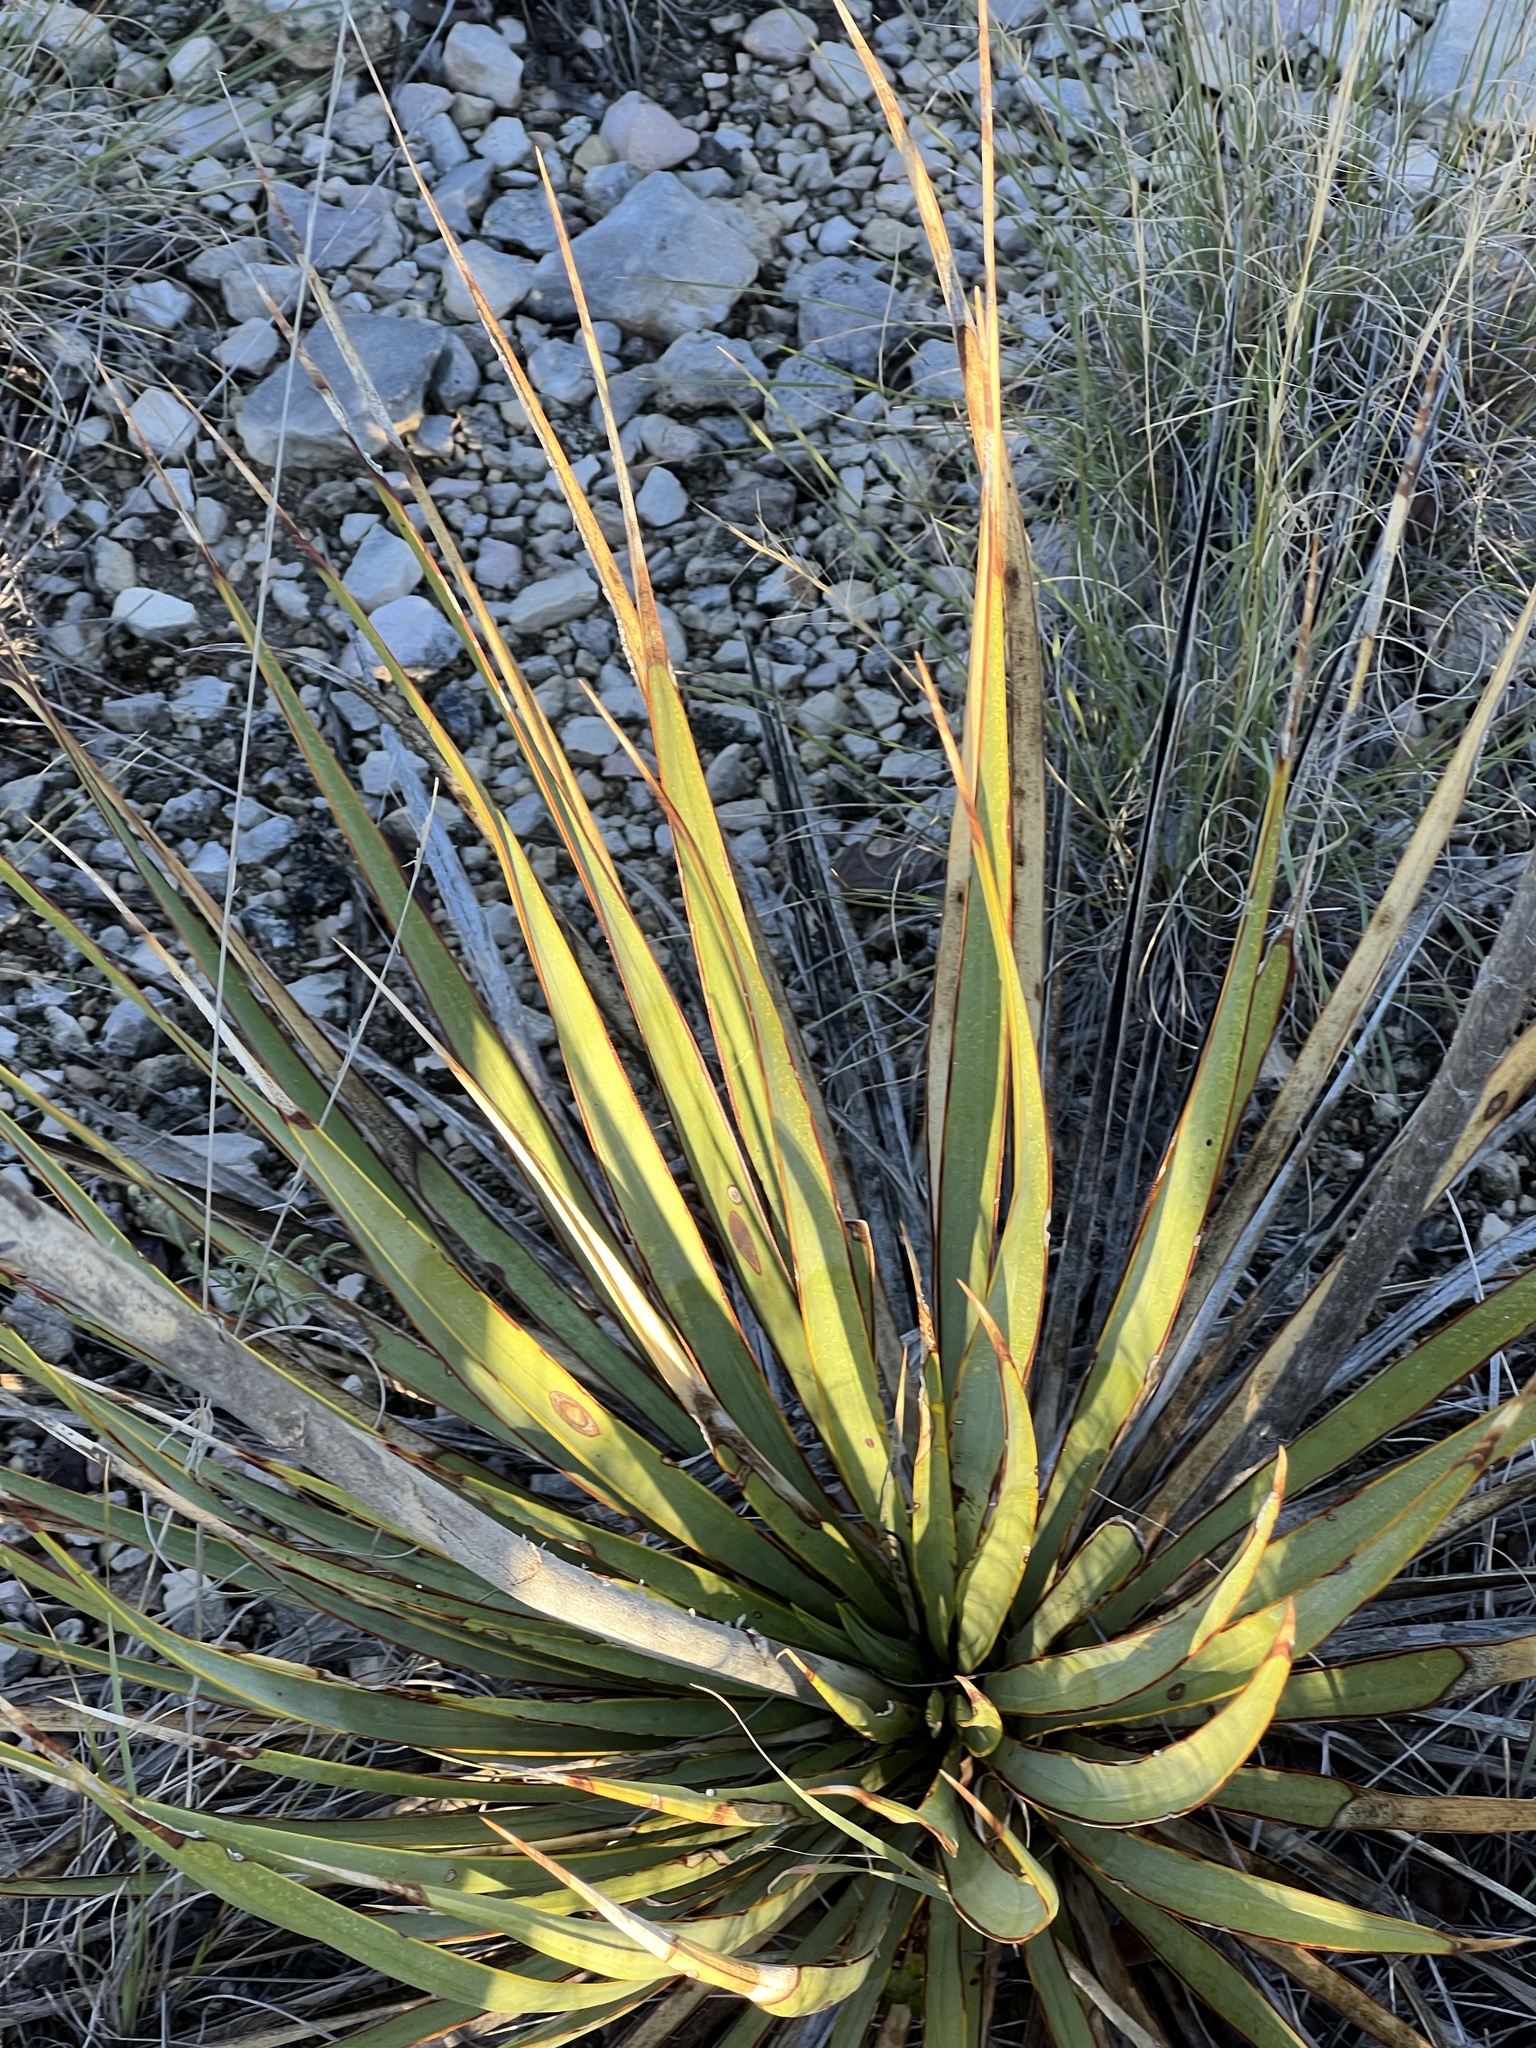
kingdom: Plantae
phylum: Tracheophyta
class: Liliopsida
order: Asparagales
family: Asparagaceae
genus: Yucca
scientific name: Yucca reverchonii
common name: San angelo yucca
